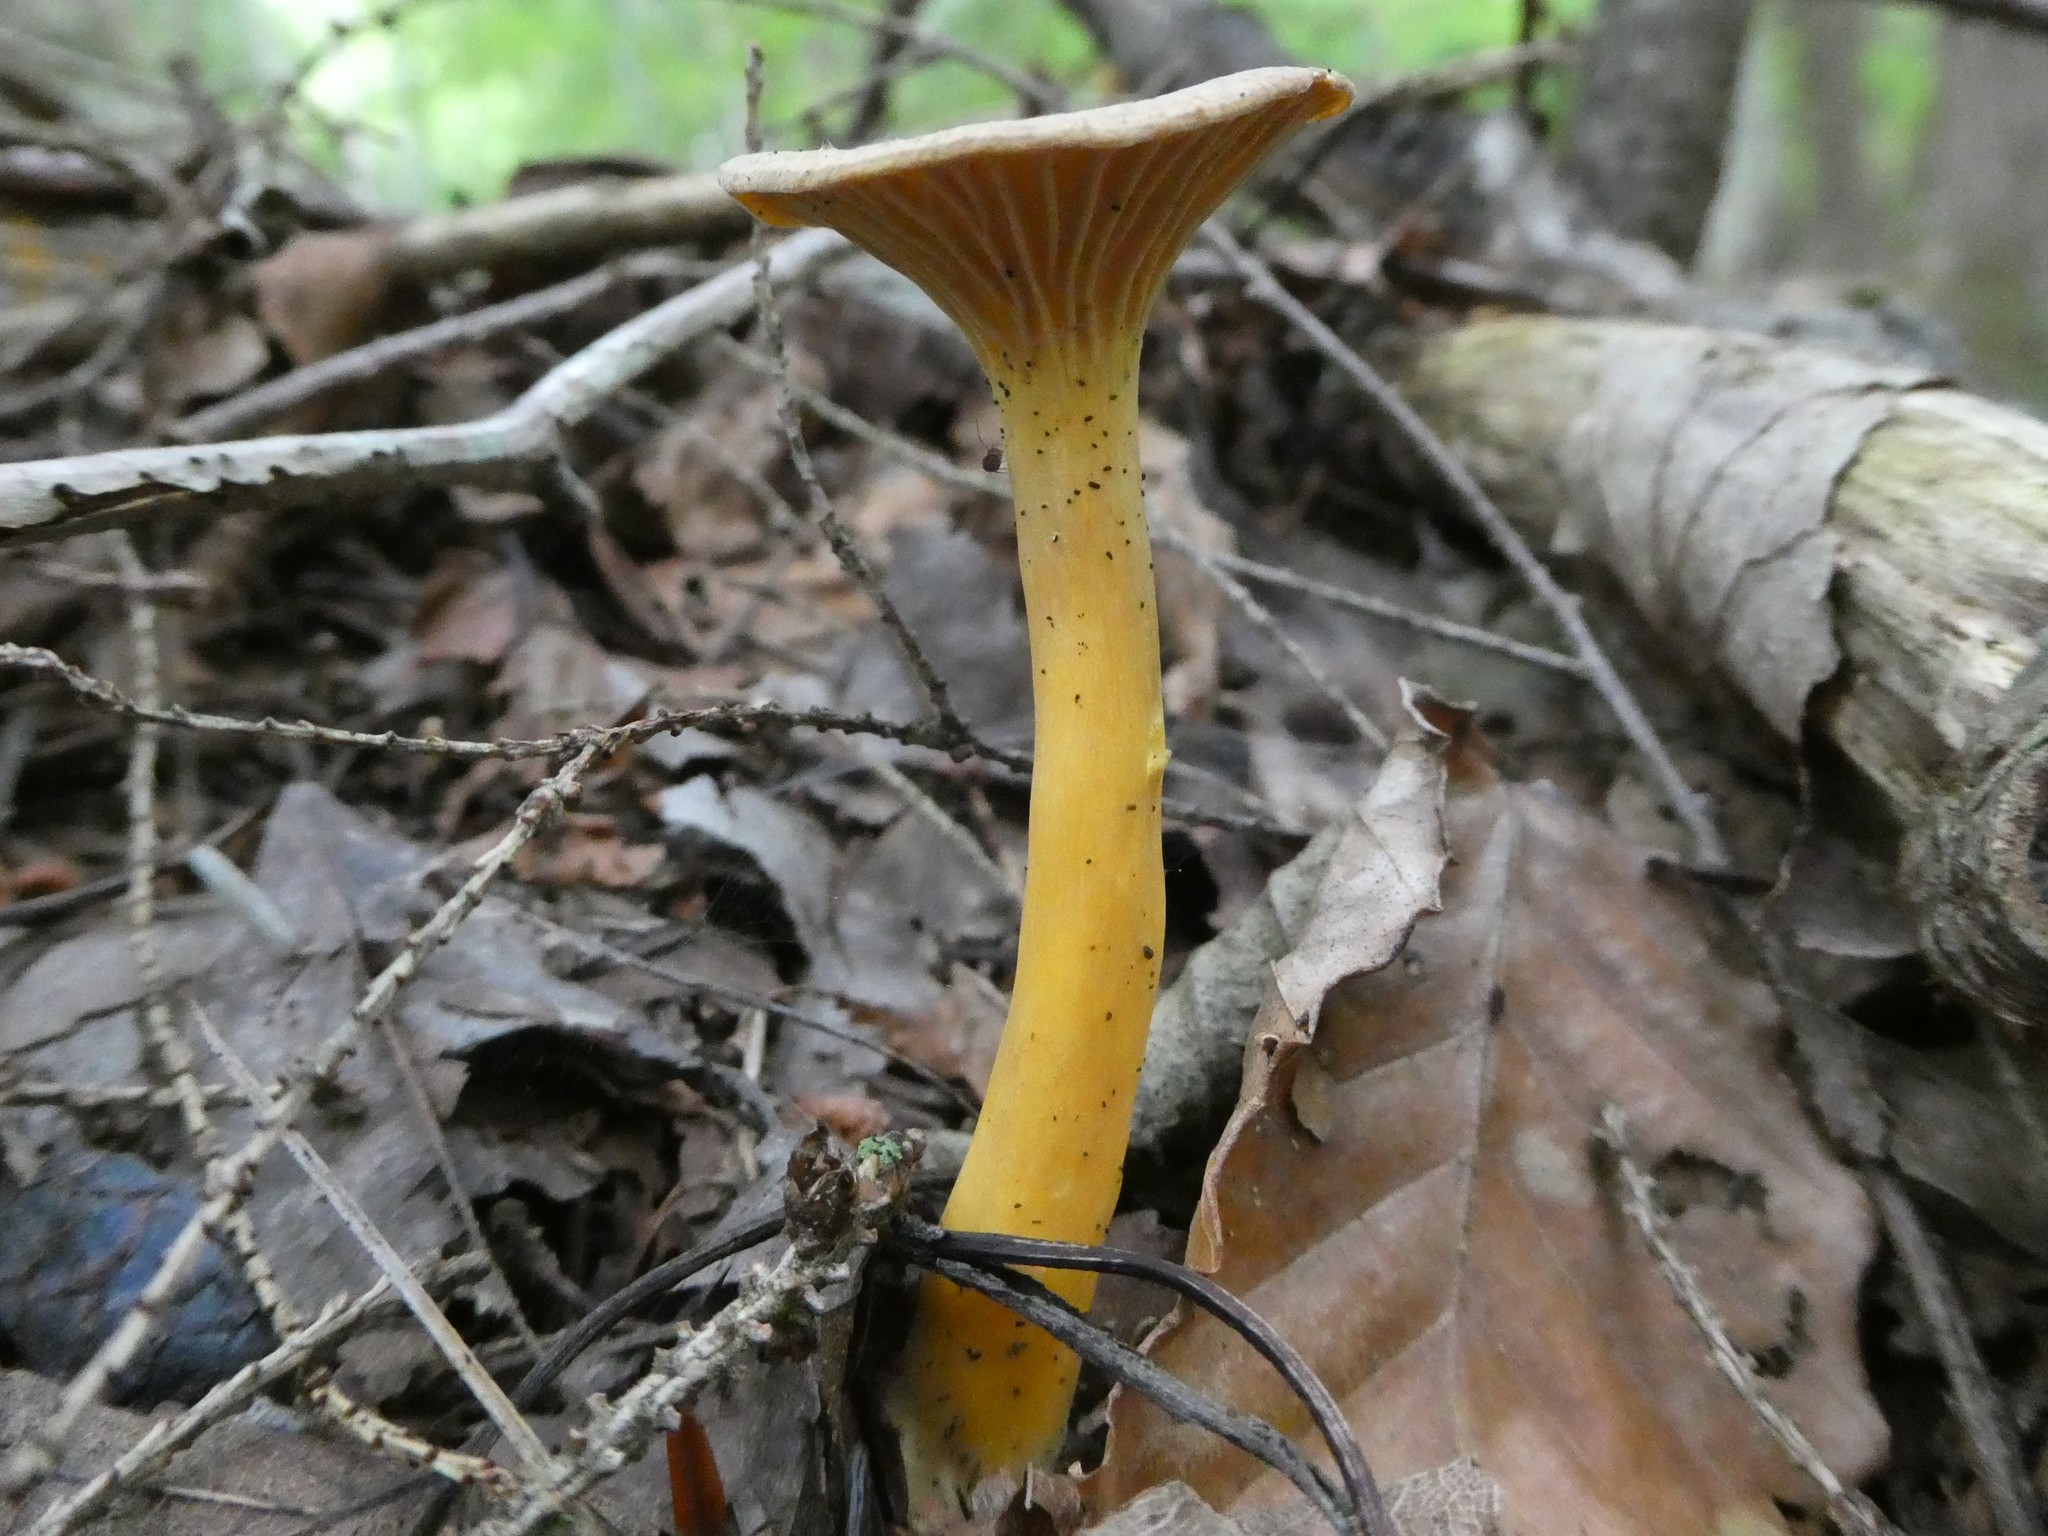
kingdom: Fungi
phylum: Basidiomycota
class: Agaricomycetes
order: Cantharellales
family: Hydnaceae
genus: Craterellus
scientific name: Craterellus tubaeformis
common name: Yellowfoot
